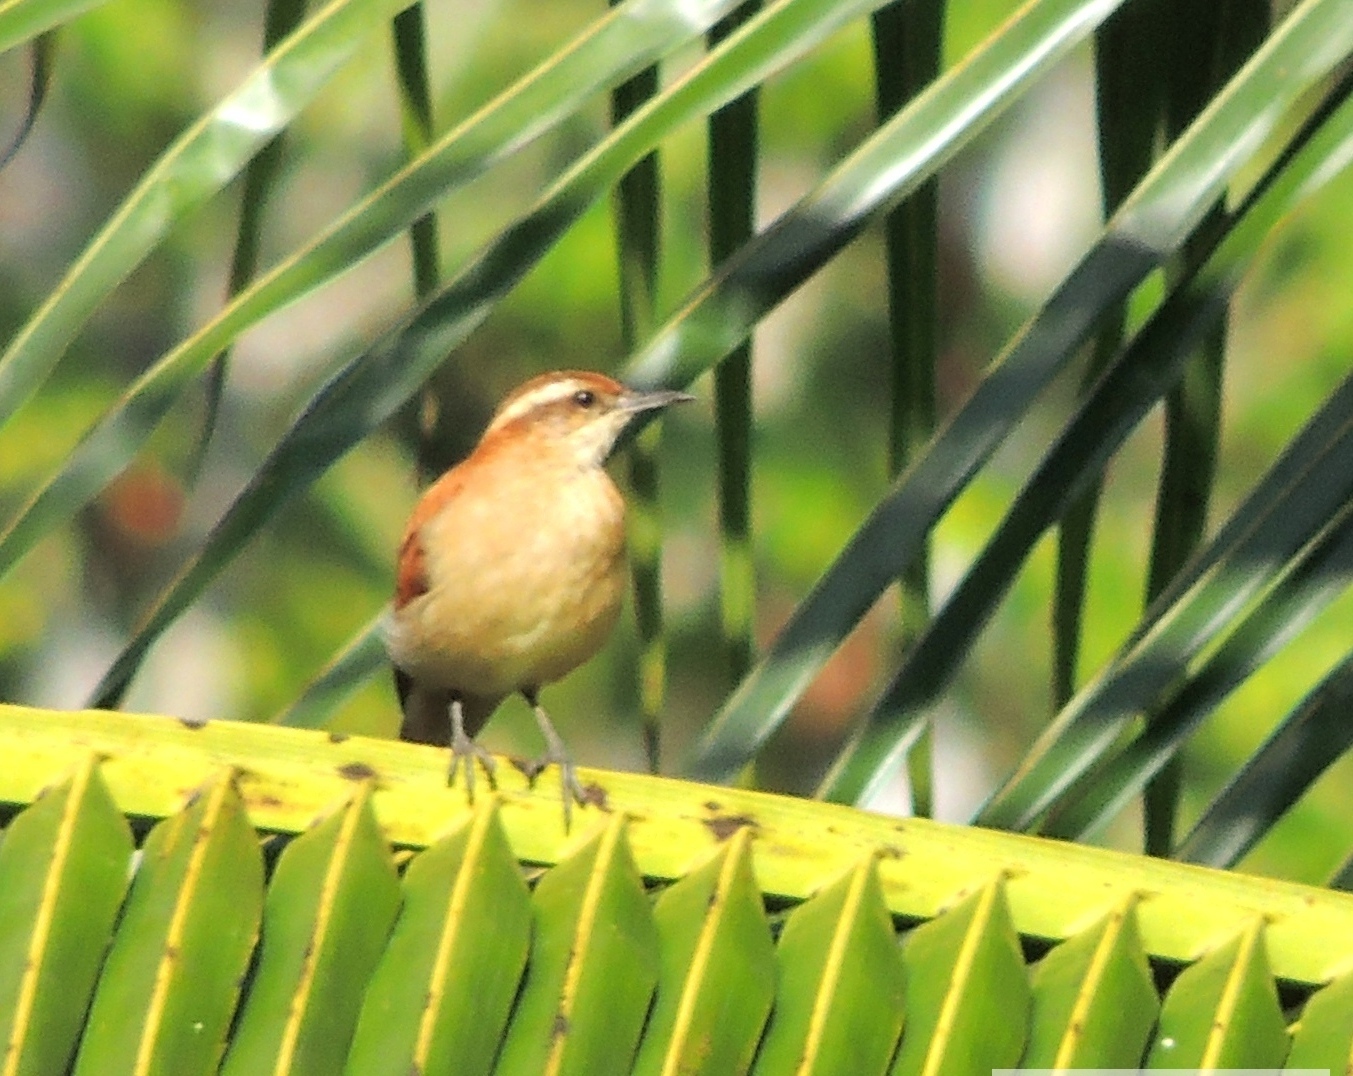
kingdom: Animalia
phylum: Chordata
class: Aves
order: Passeriformes
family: Furnariidae
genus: Furnarius
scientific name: Furnarius figulus
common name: Band-tailed hornero
